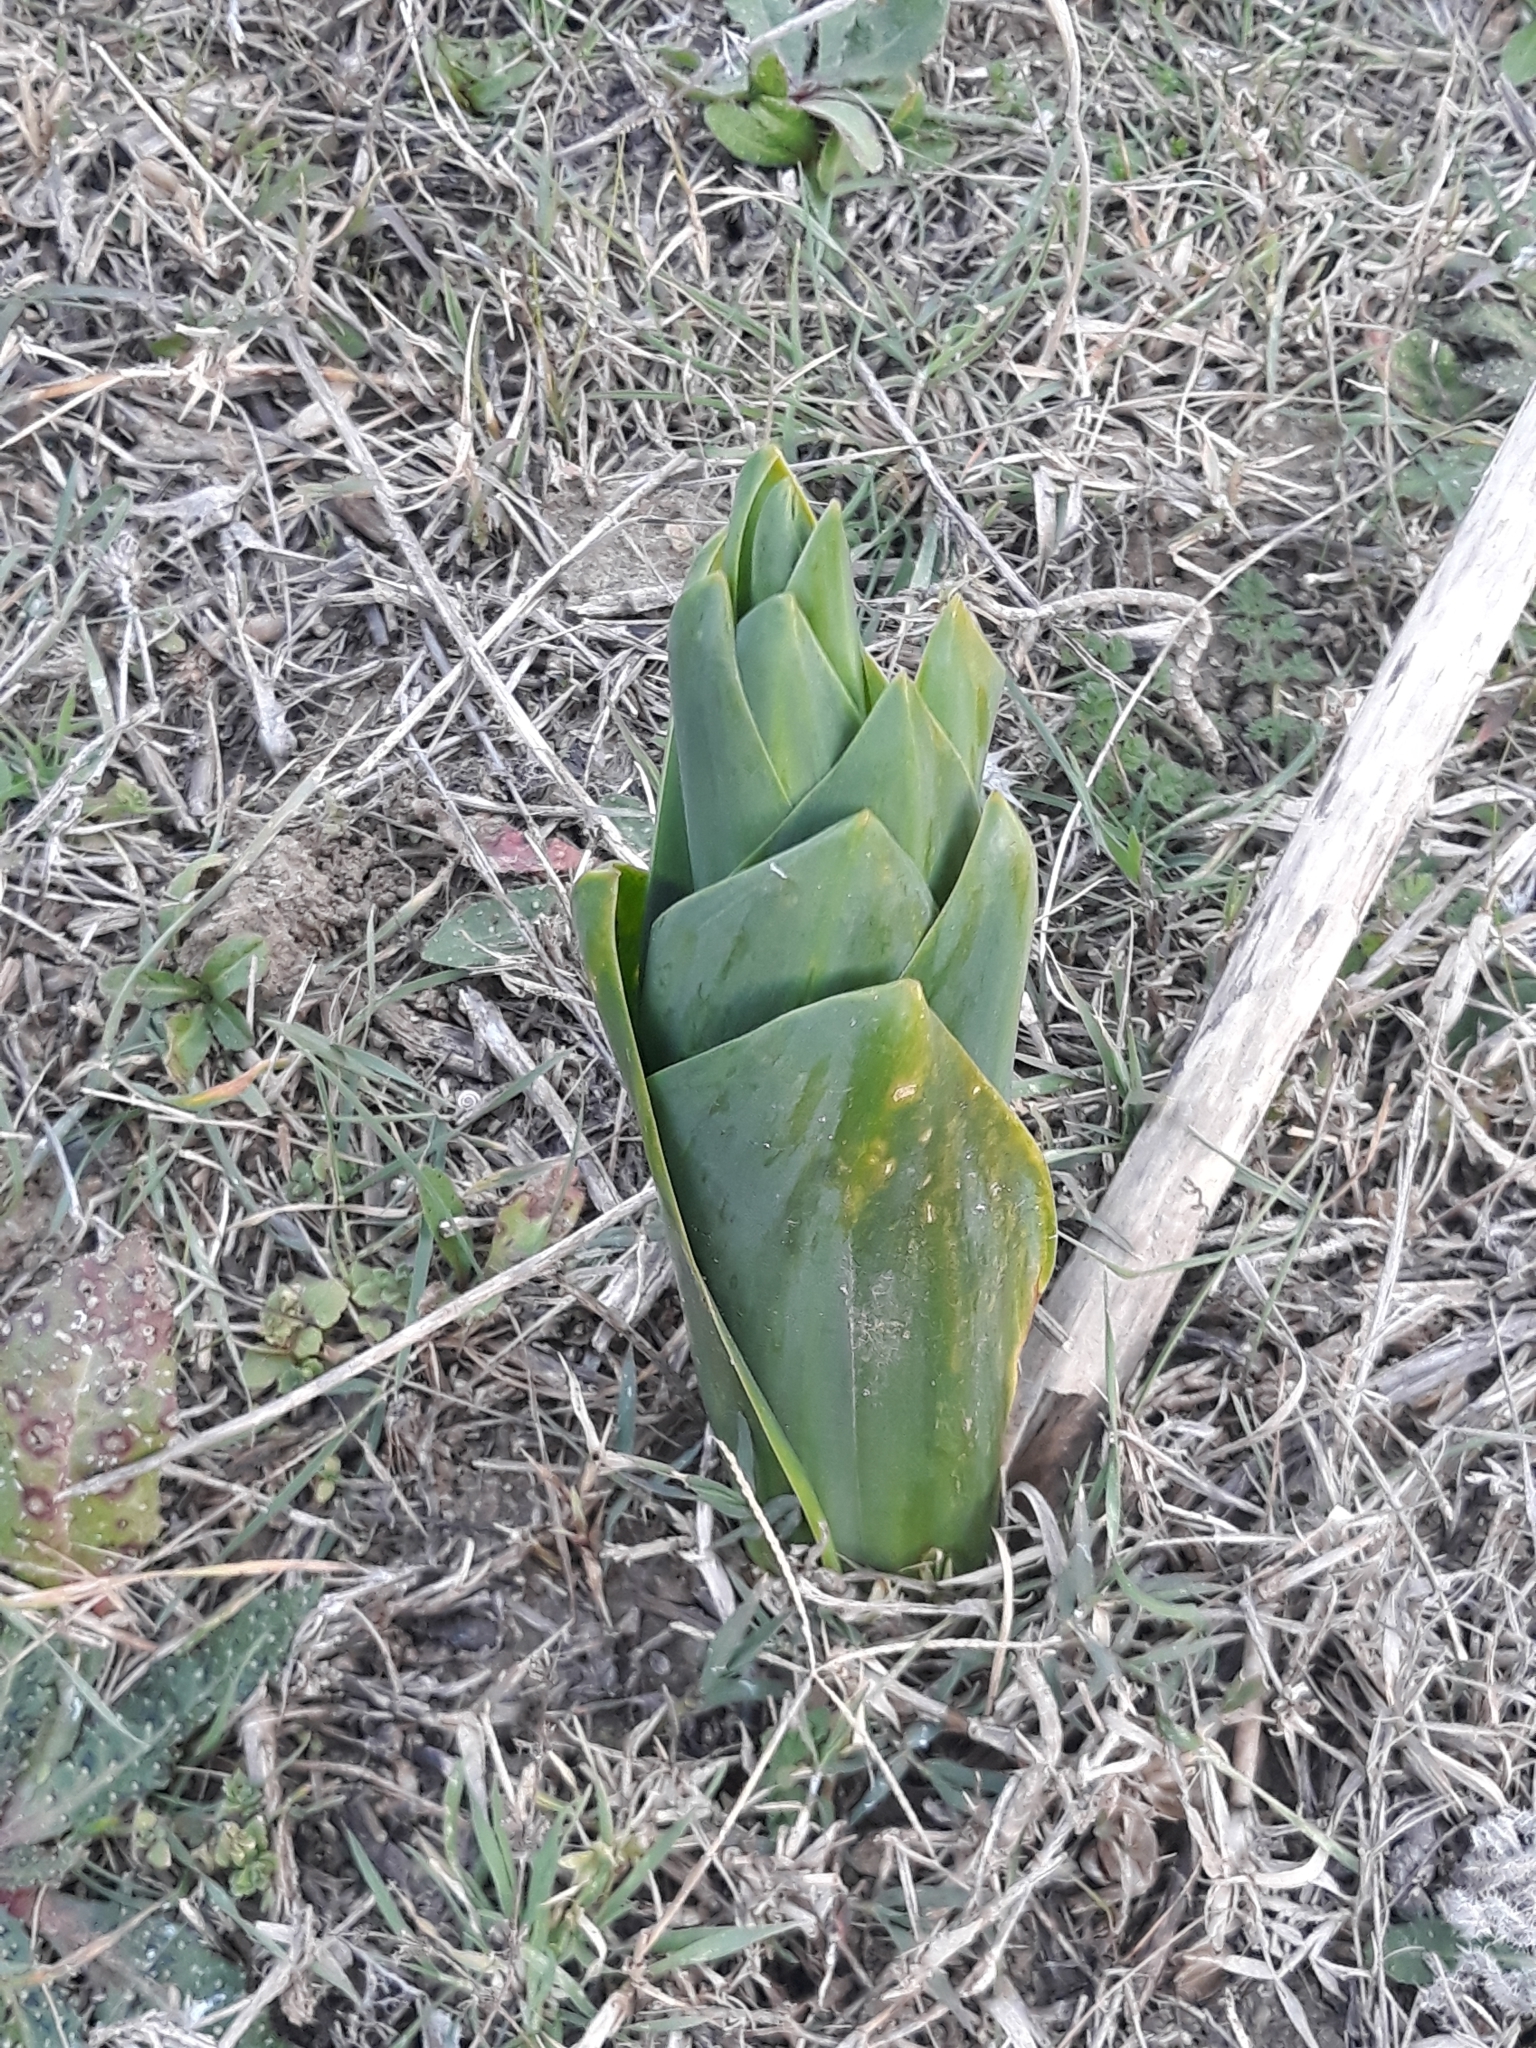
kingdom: Plantae
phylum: Tracheophyta
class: Liliopsida
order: Asparagales
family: Asparagaceae
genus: Drimia
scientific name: Drimia numidica
